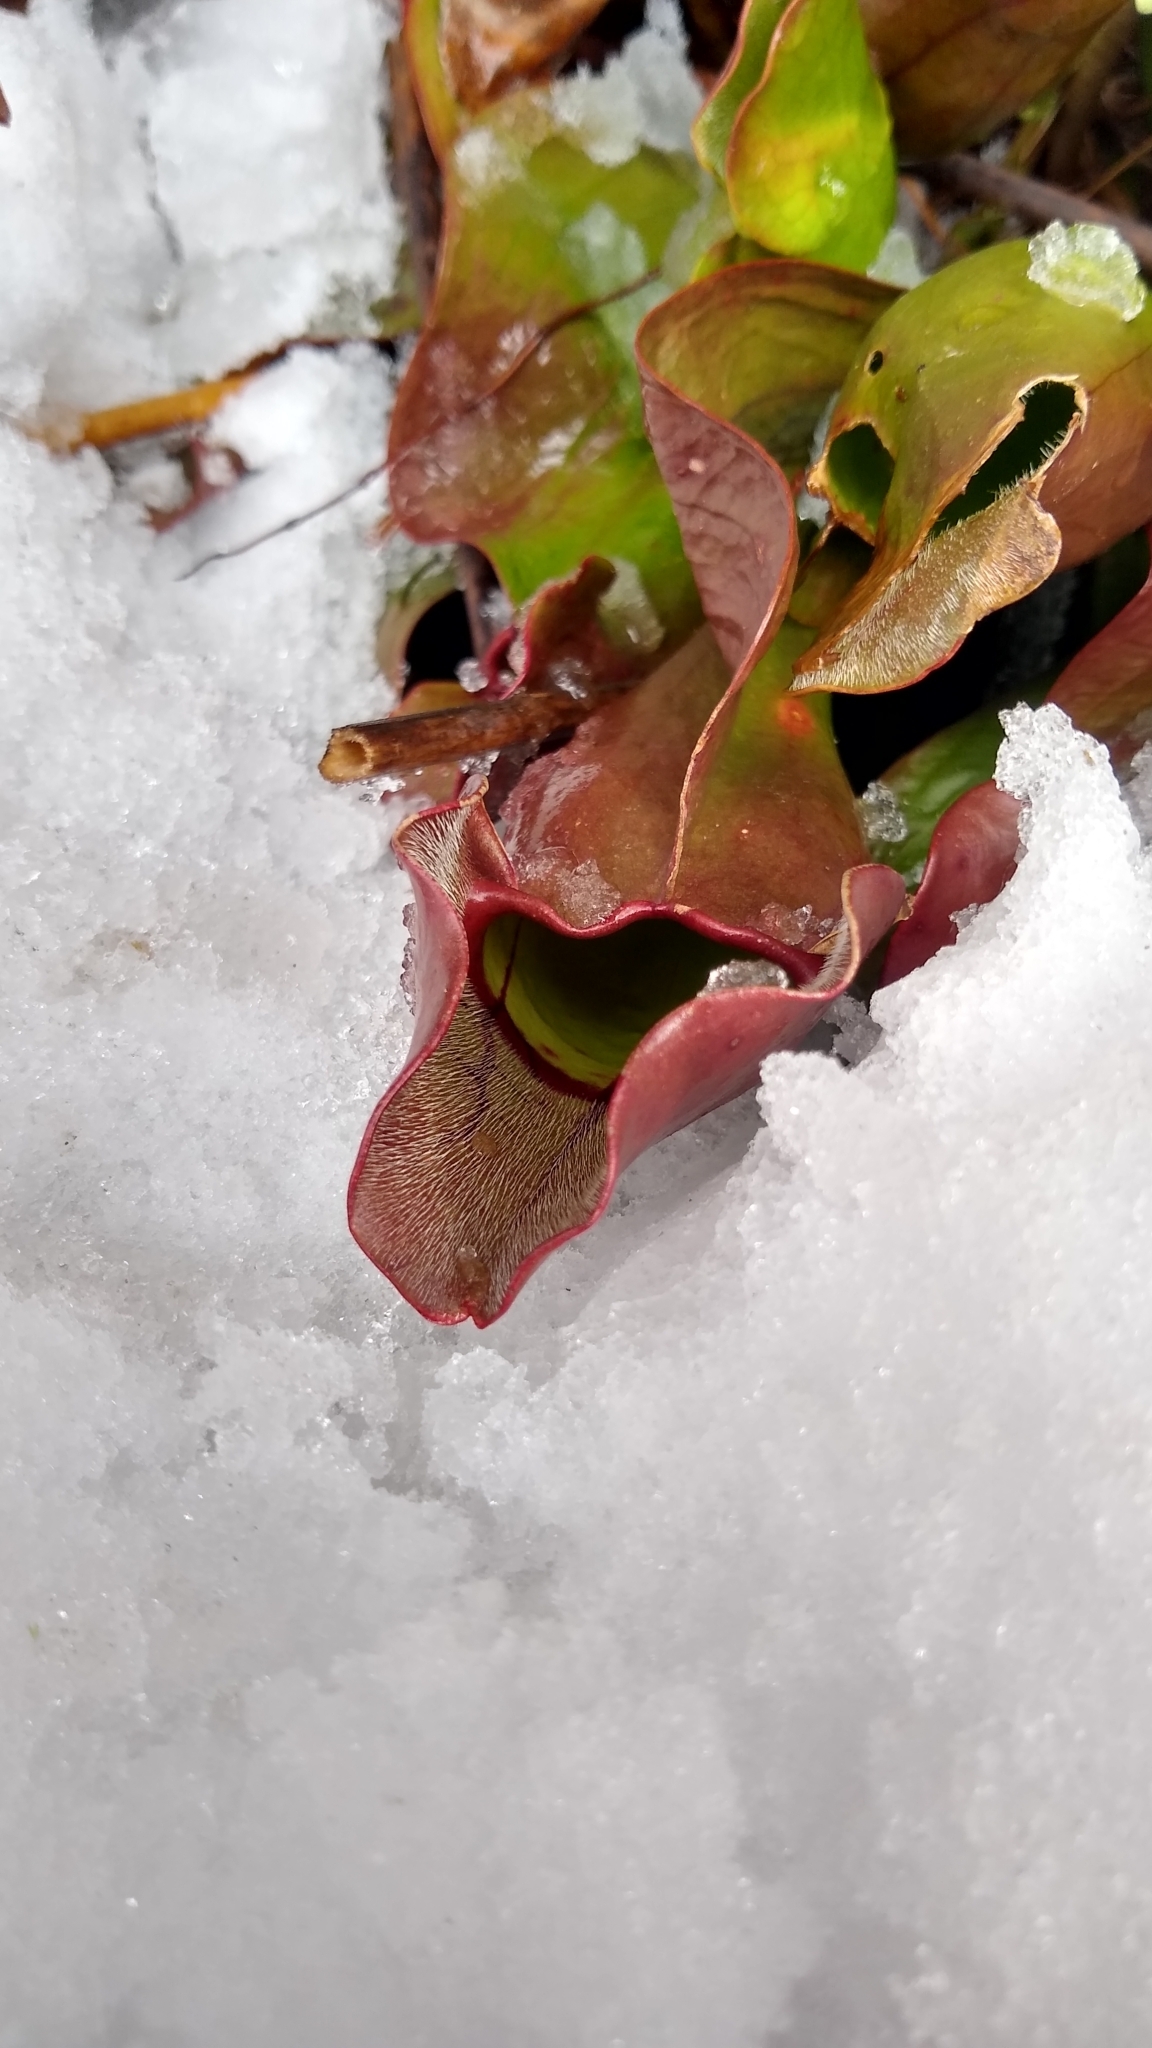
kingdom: Plantae
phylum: Tracheophyta
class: Magnoliopsida
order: Ericales
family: Sarraceniaceae
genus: Sarracenia
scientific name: Sarracenia purpurea
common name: Pitcherplant
